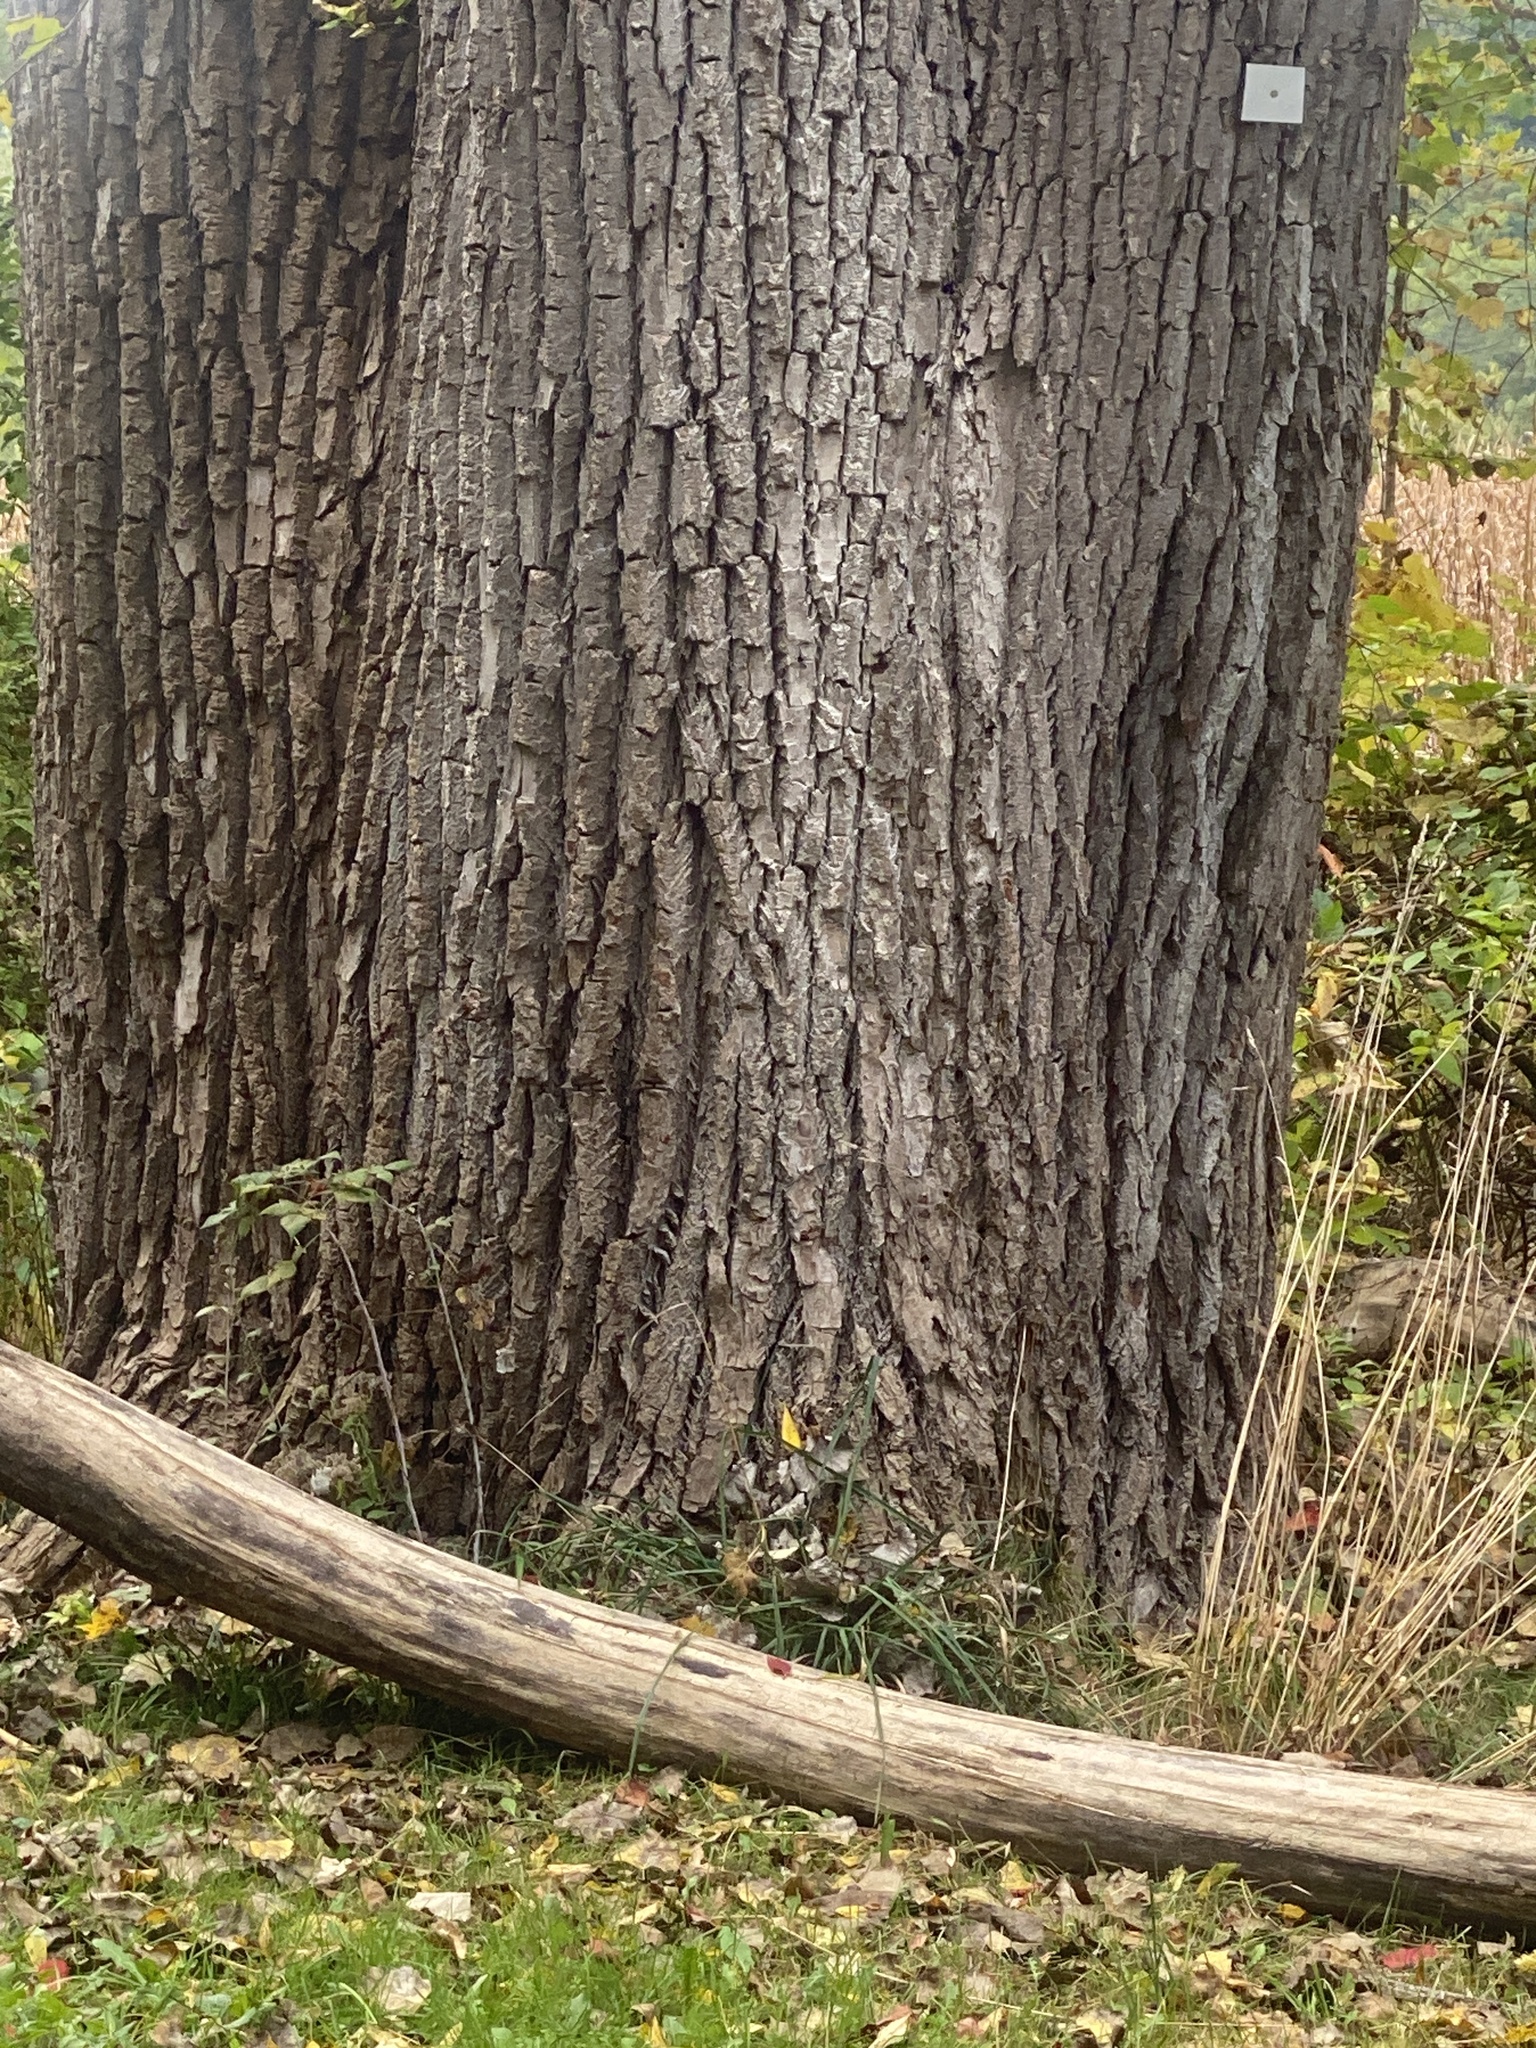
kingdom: Plantae
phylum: Tracheophyta
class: Magnoliopsida
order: Malpighiales
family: Salicaceae
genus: Populus
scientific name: Populus deltoides
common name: Eastern cottonwood
